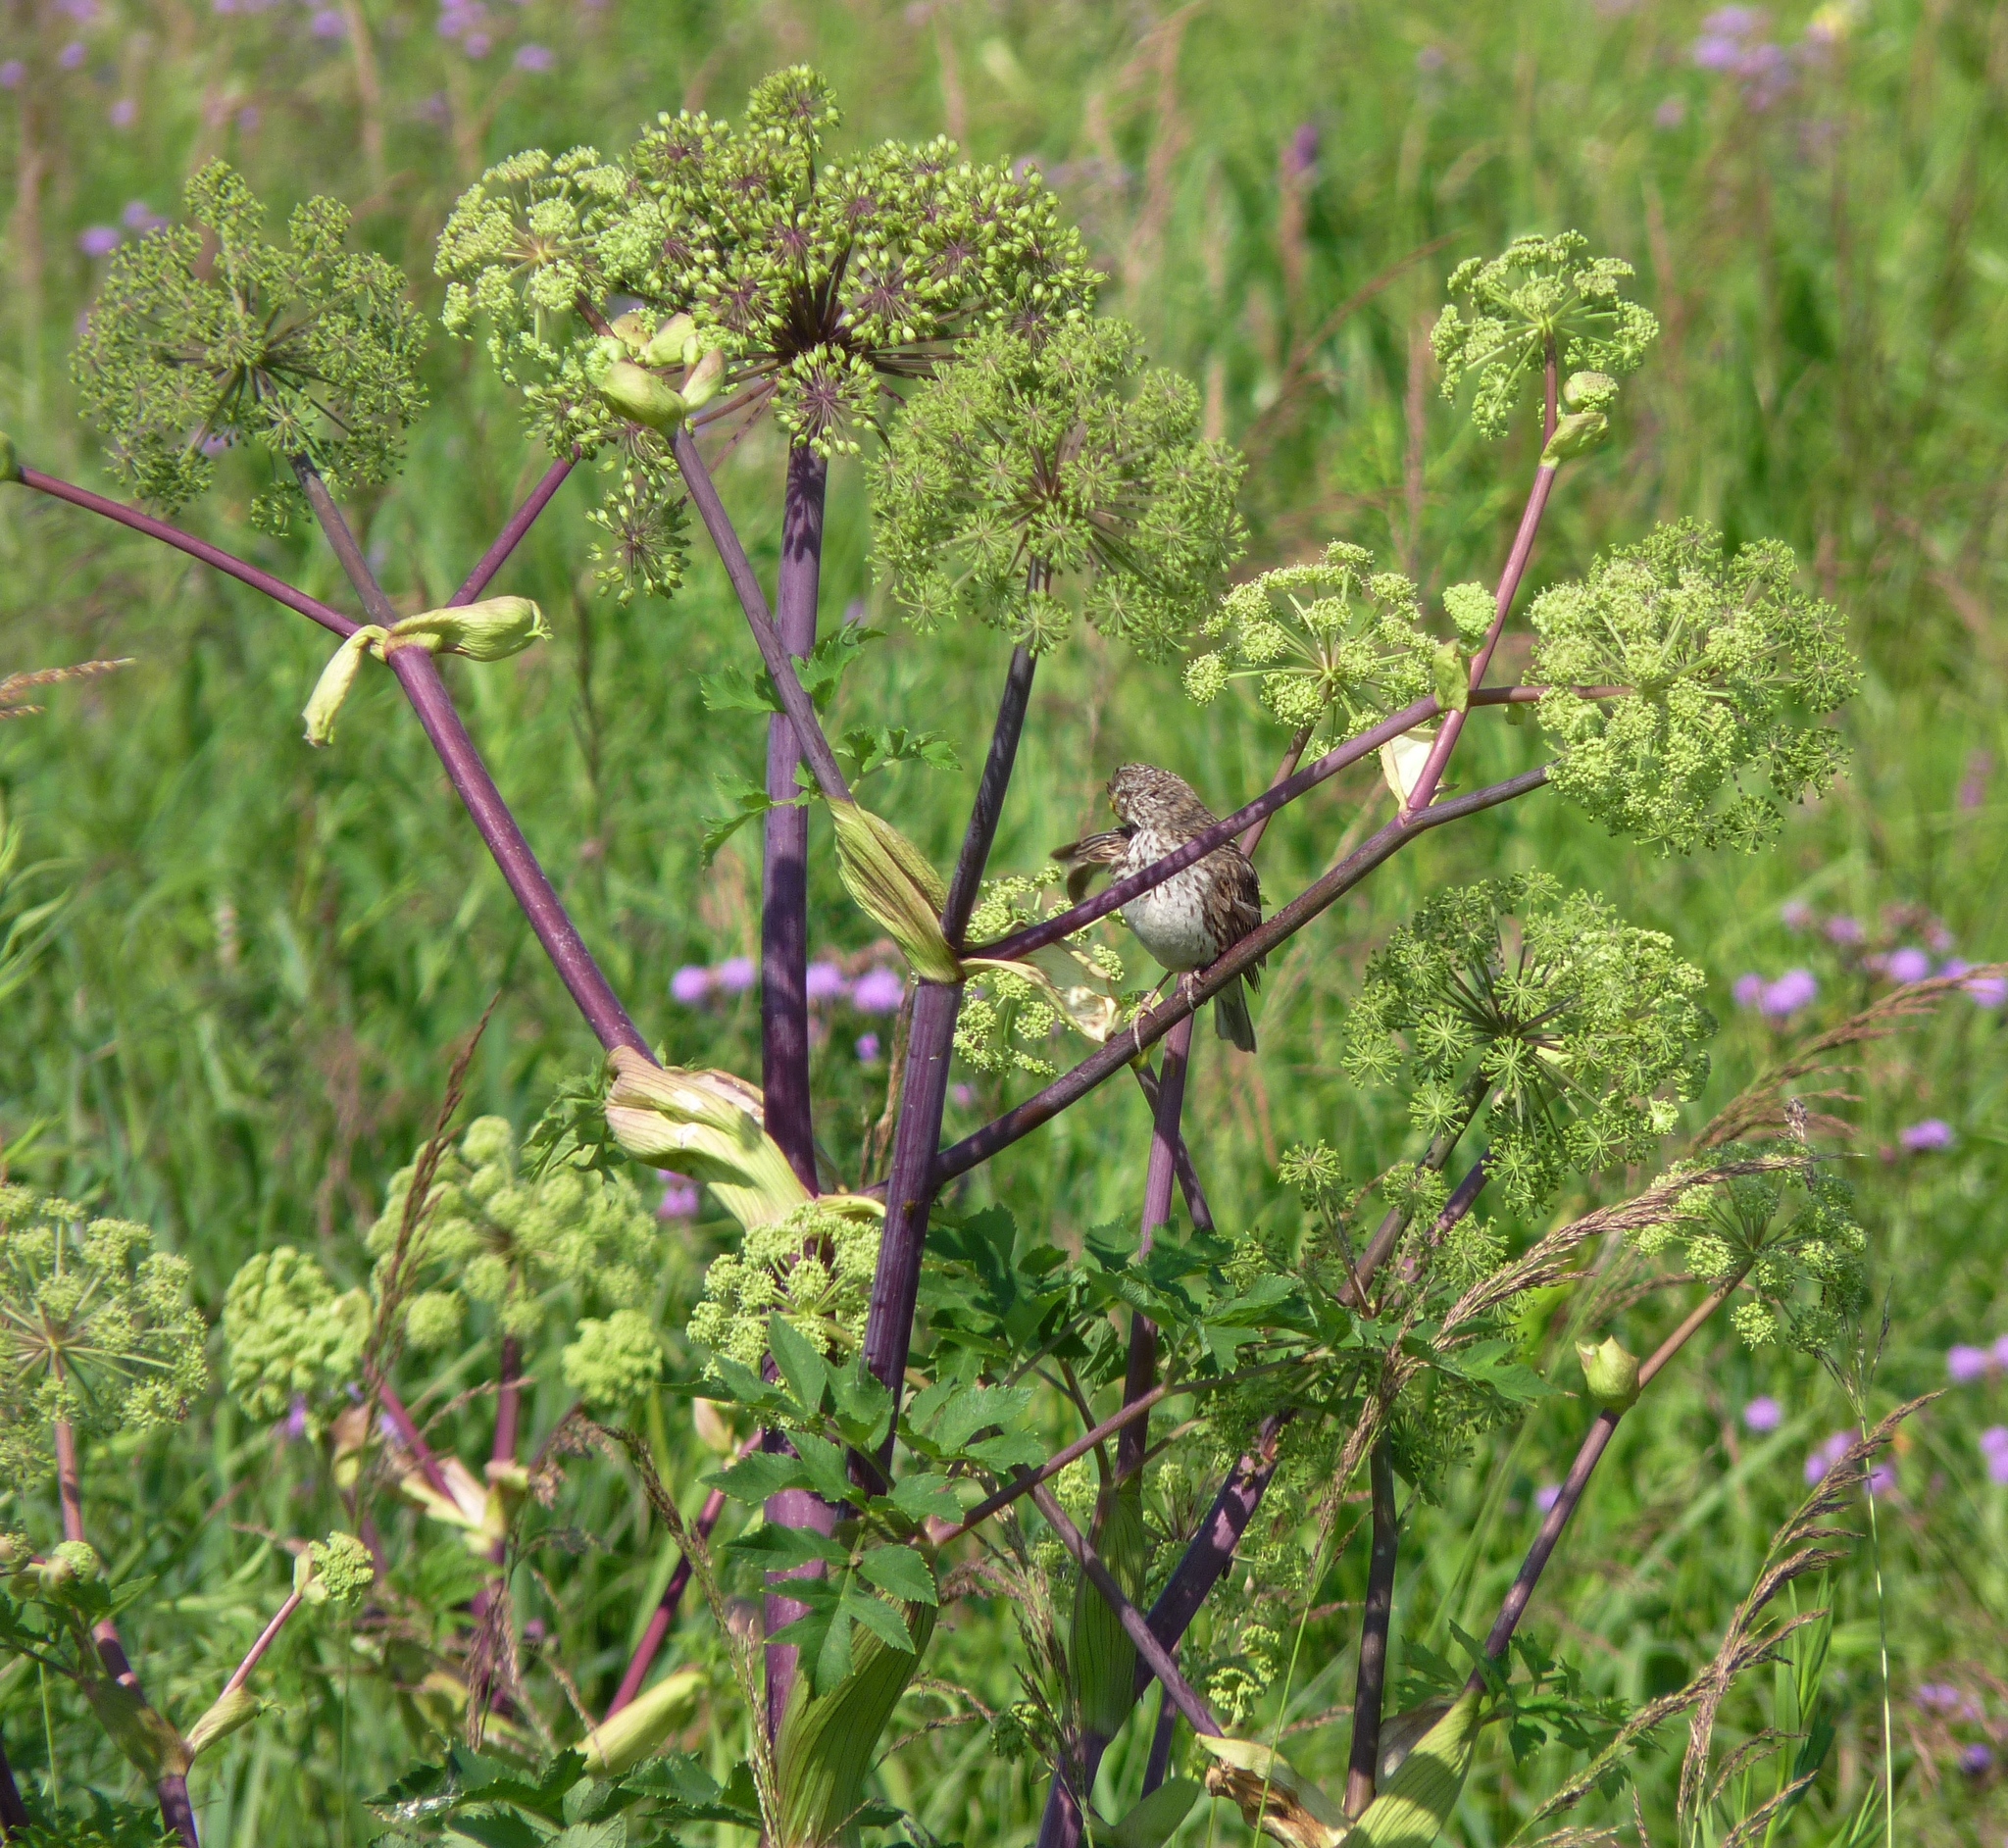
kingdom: Plantae
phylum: Tracheophyta
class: Magnoliopsida
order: Apiales
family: Apiaceae
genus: Angelica
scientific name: Angelica atropurpurea
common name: Great angelica
